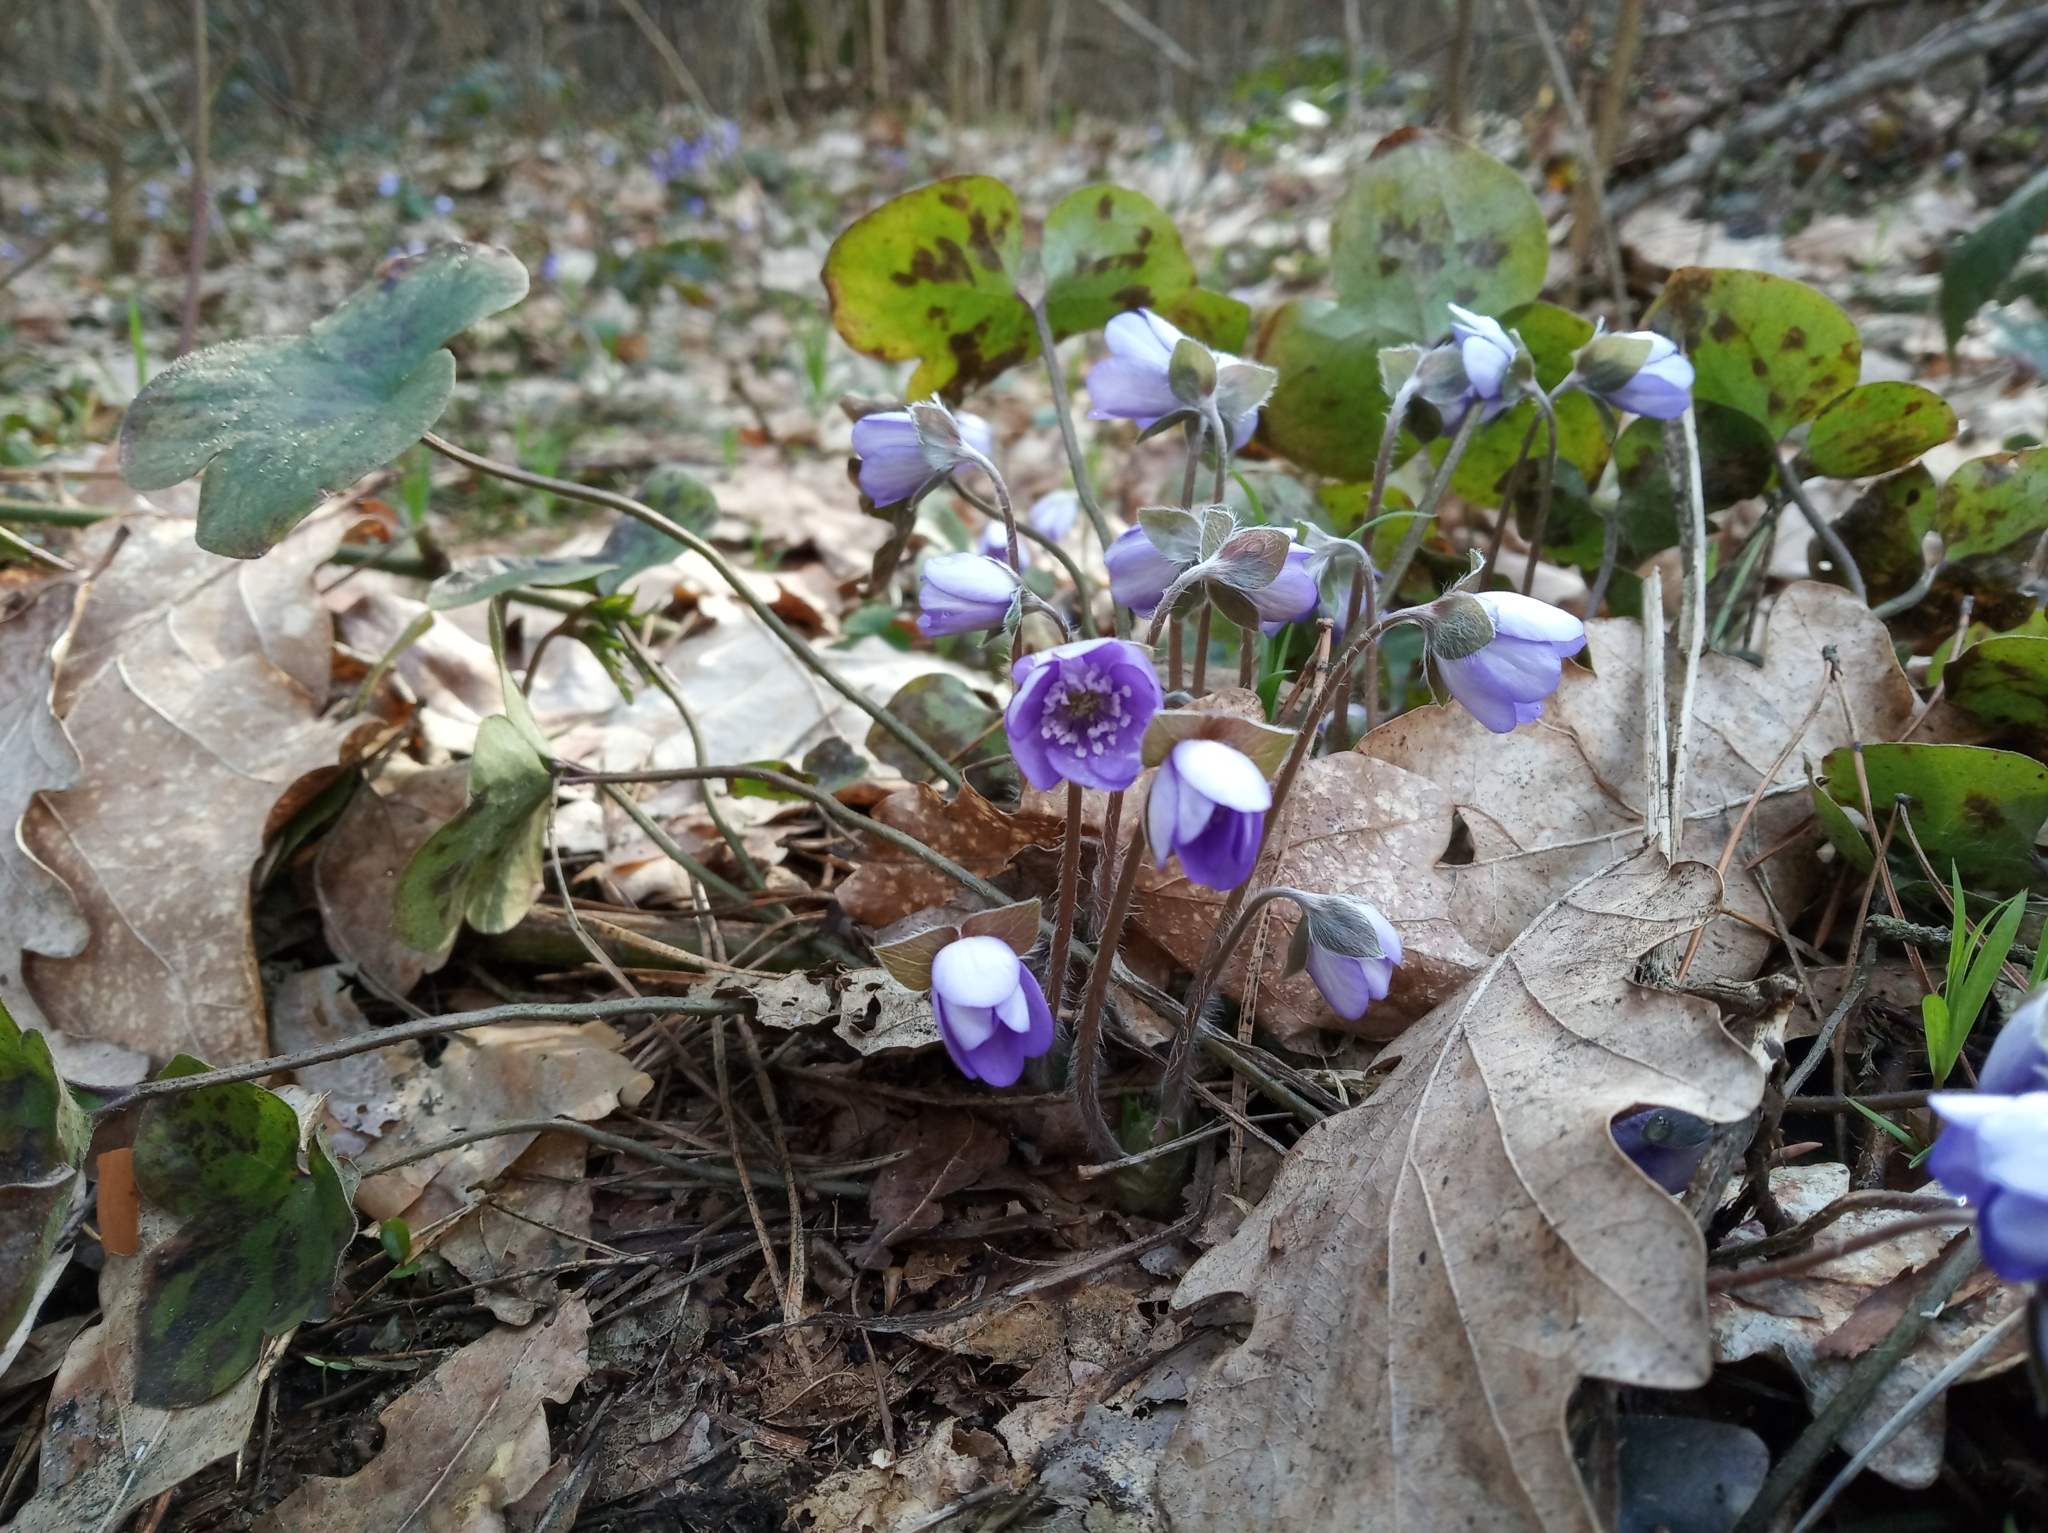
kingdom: Plantae
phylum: Tracheophyta
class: Magnoliopsida
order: Ranunculales
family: Ranunculaceae
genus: Hepatica
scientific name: Hepatica nobilis
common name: Liverleaf
